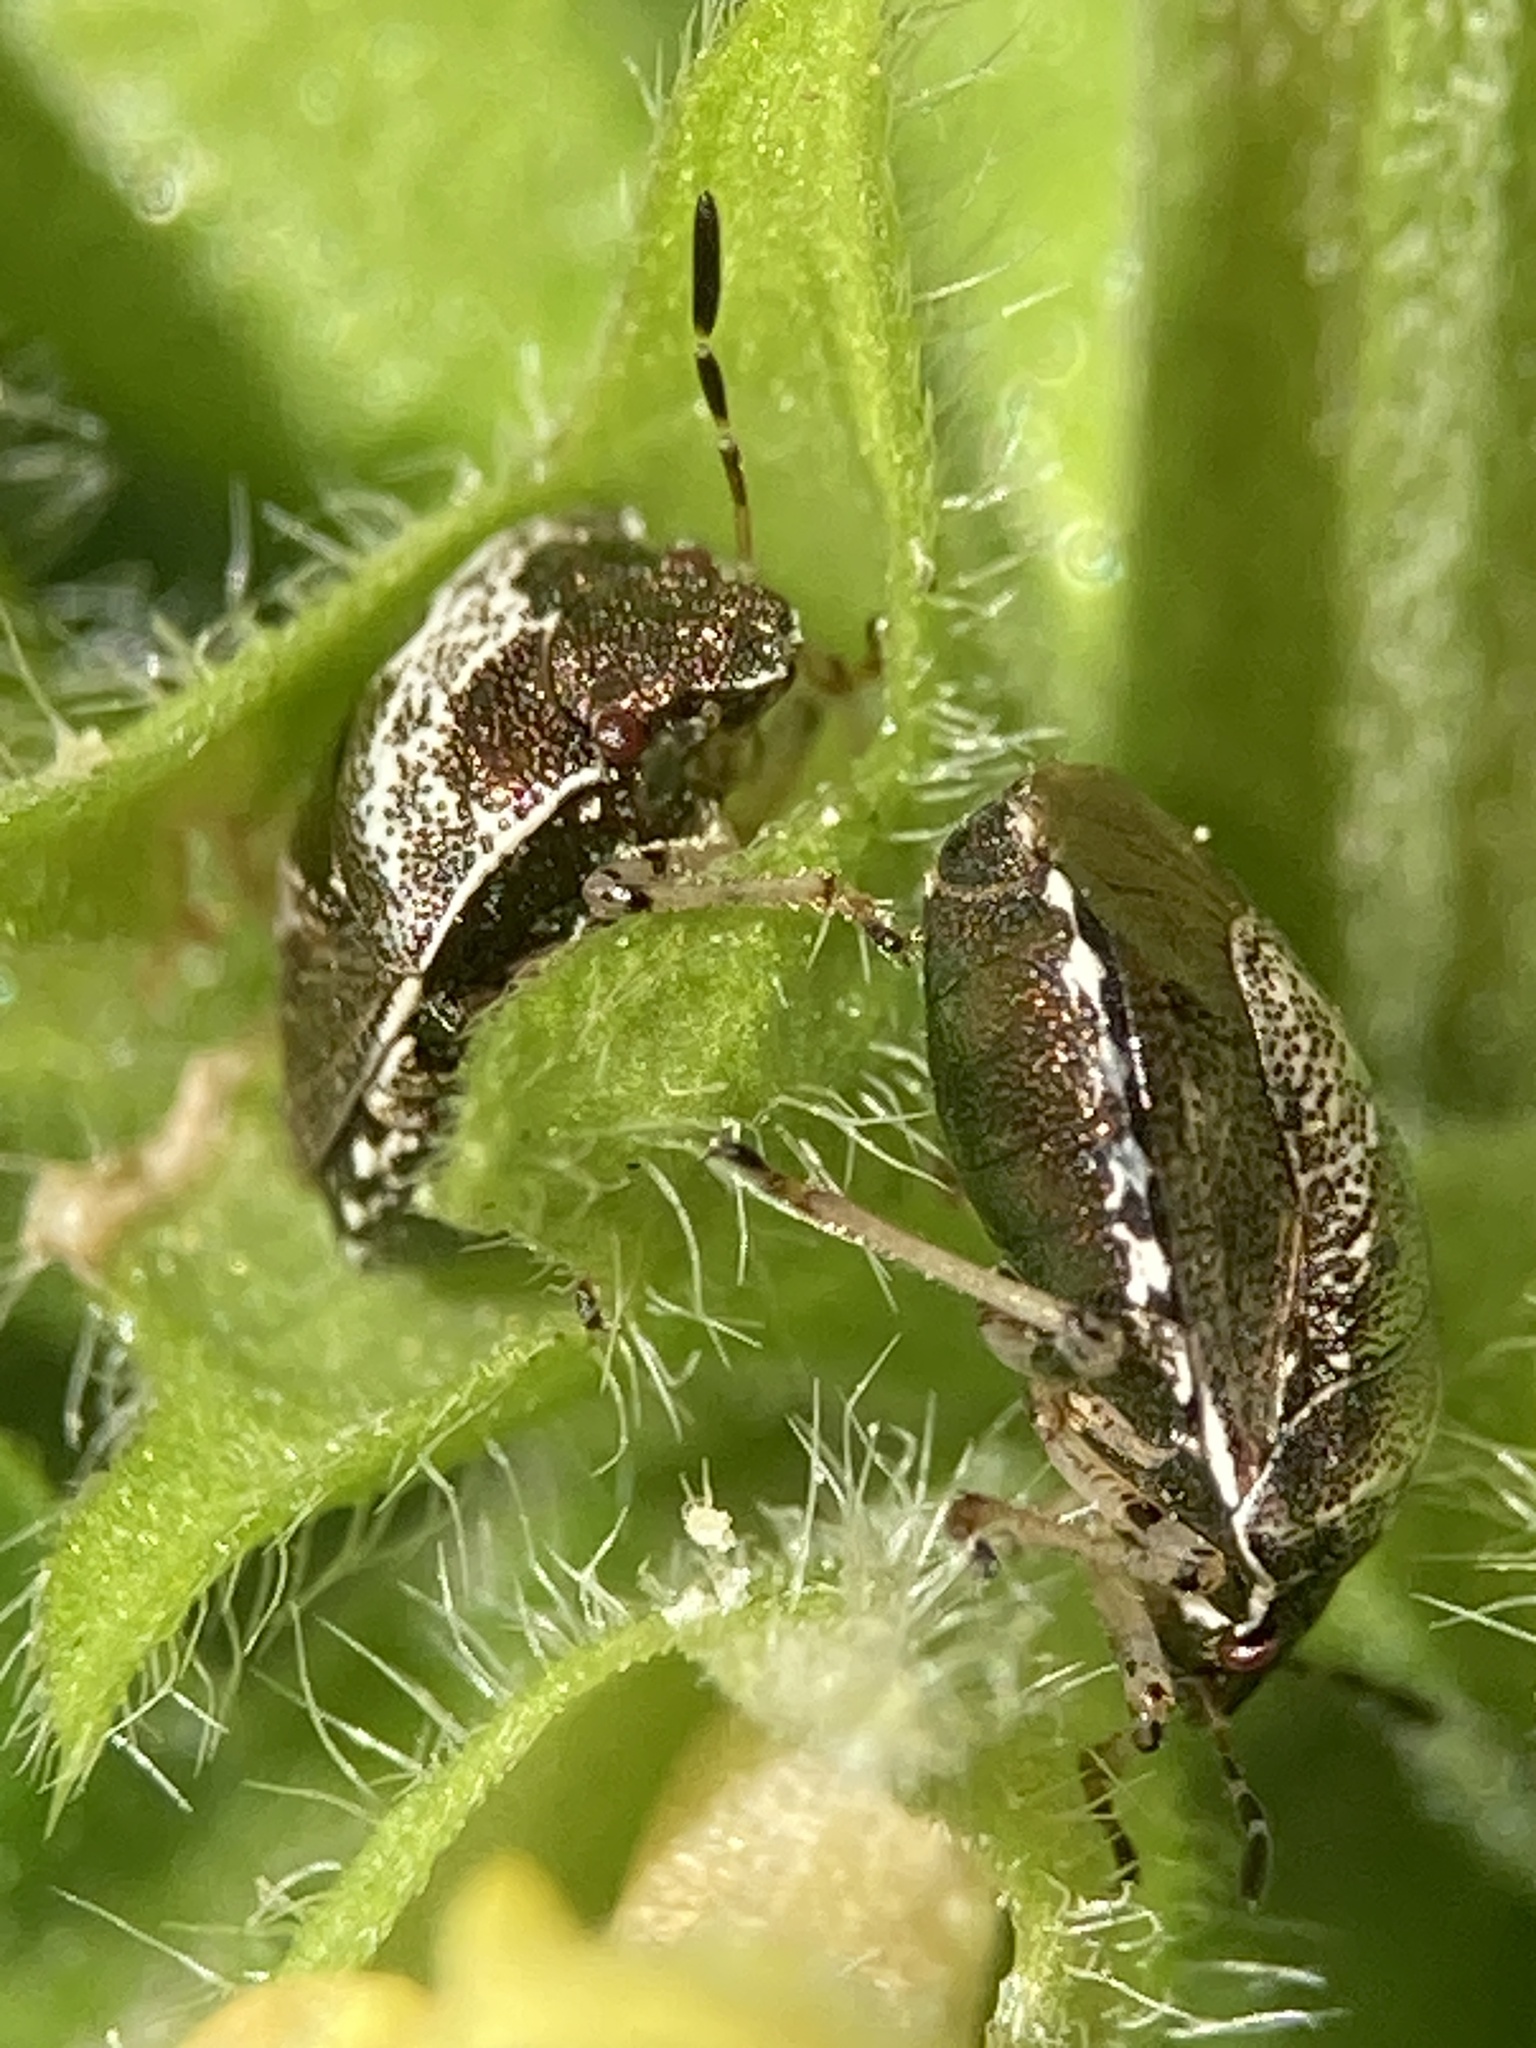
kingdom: Animalia
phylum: Arthropoda
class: Insecta
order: Hemiptera
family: Pentatomidae
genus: Eysarcoris
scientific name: Eysarcoris venustissimus
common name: Woundwort shieldbug
